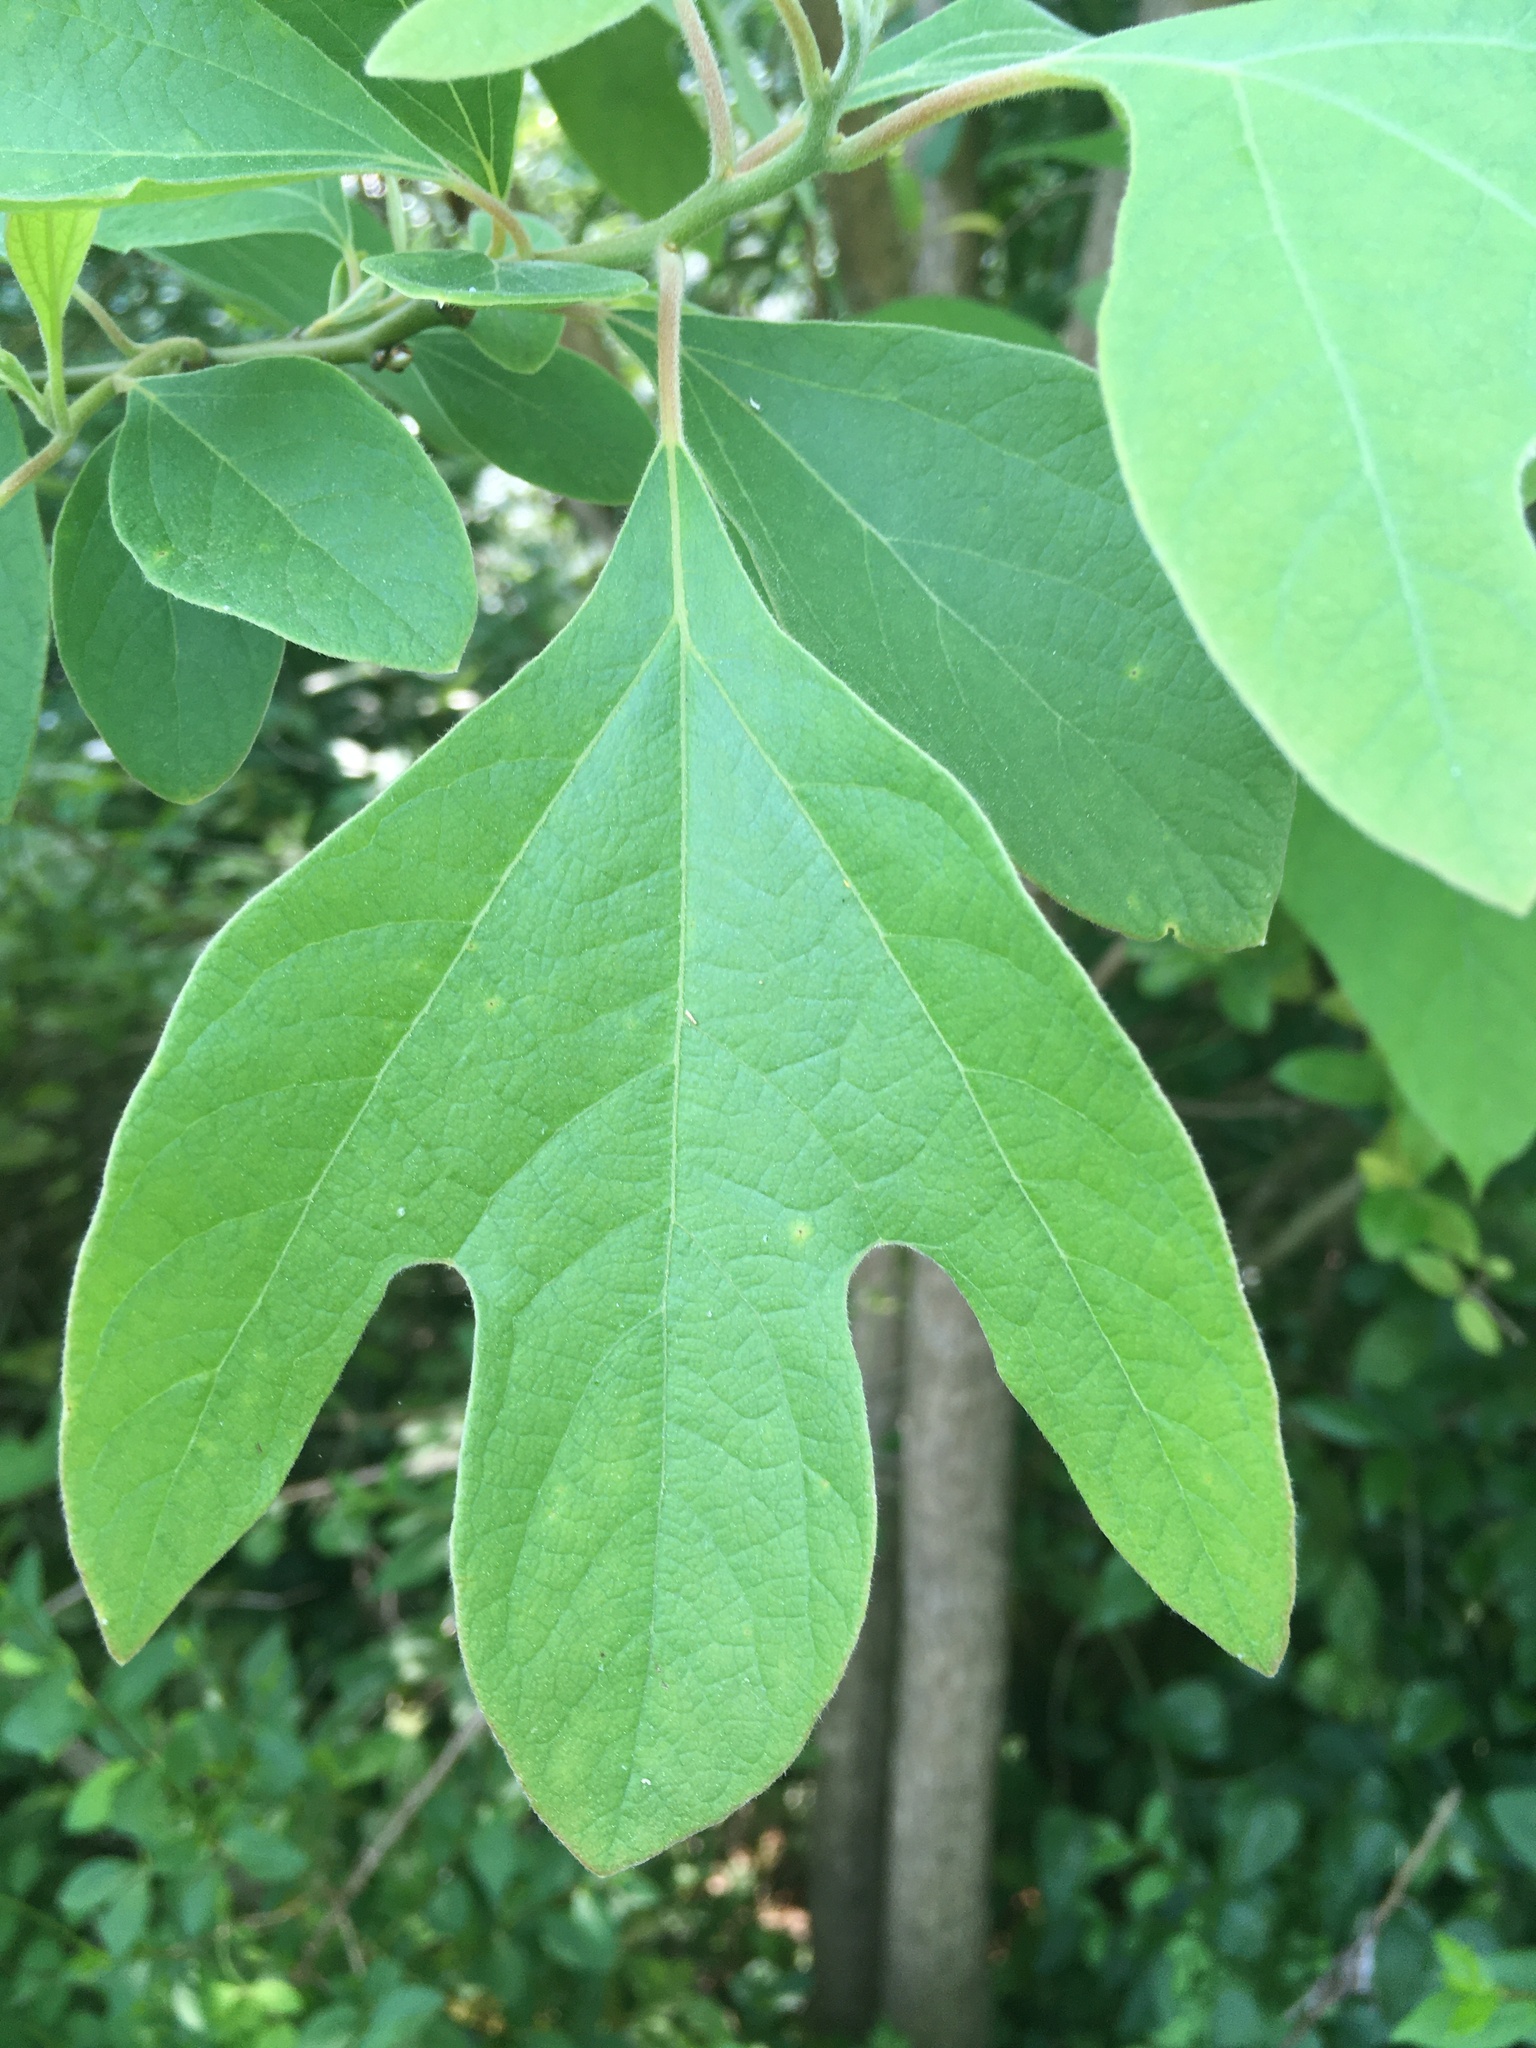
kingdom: Plantae
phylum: Tracheophyta
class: Magnoliopsida
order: Laurales
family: Lauraceae
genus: Sassafras
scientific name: Sassafras albidum
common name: Sassafras
